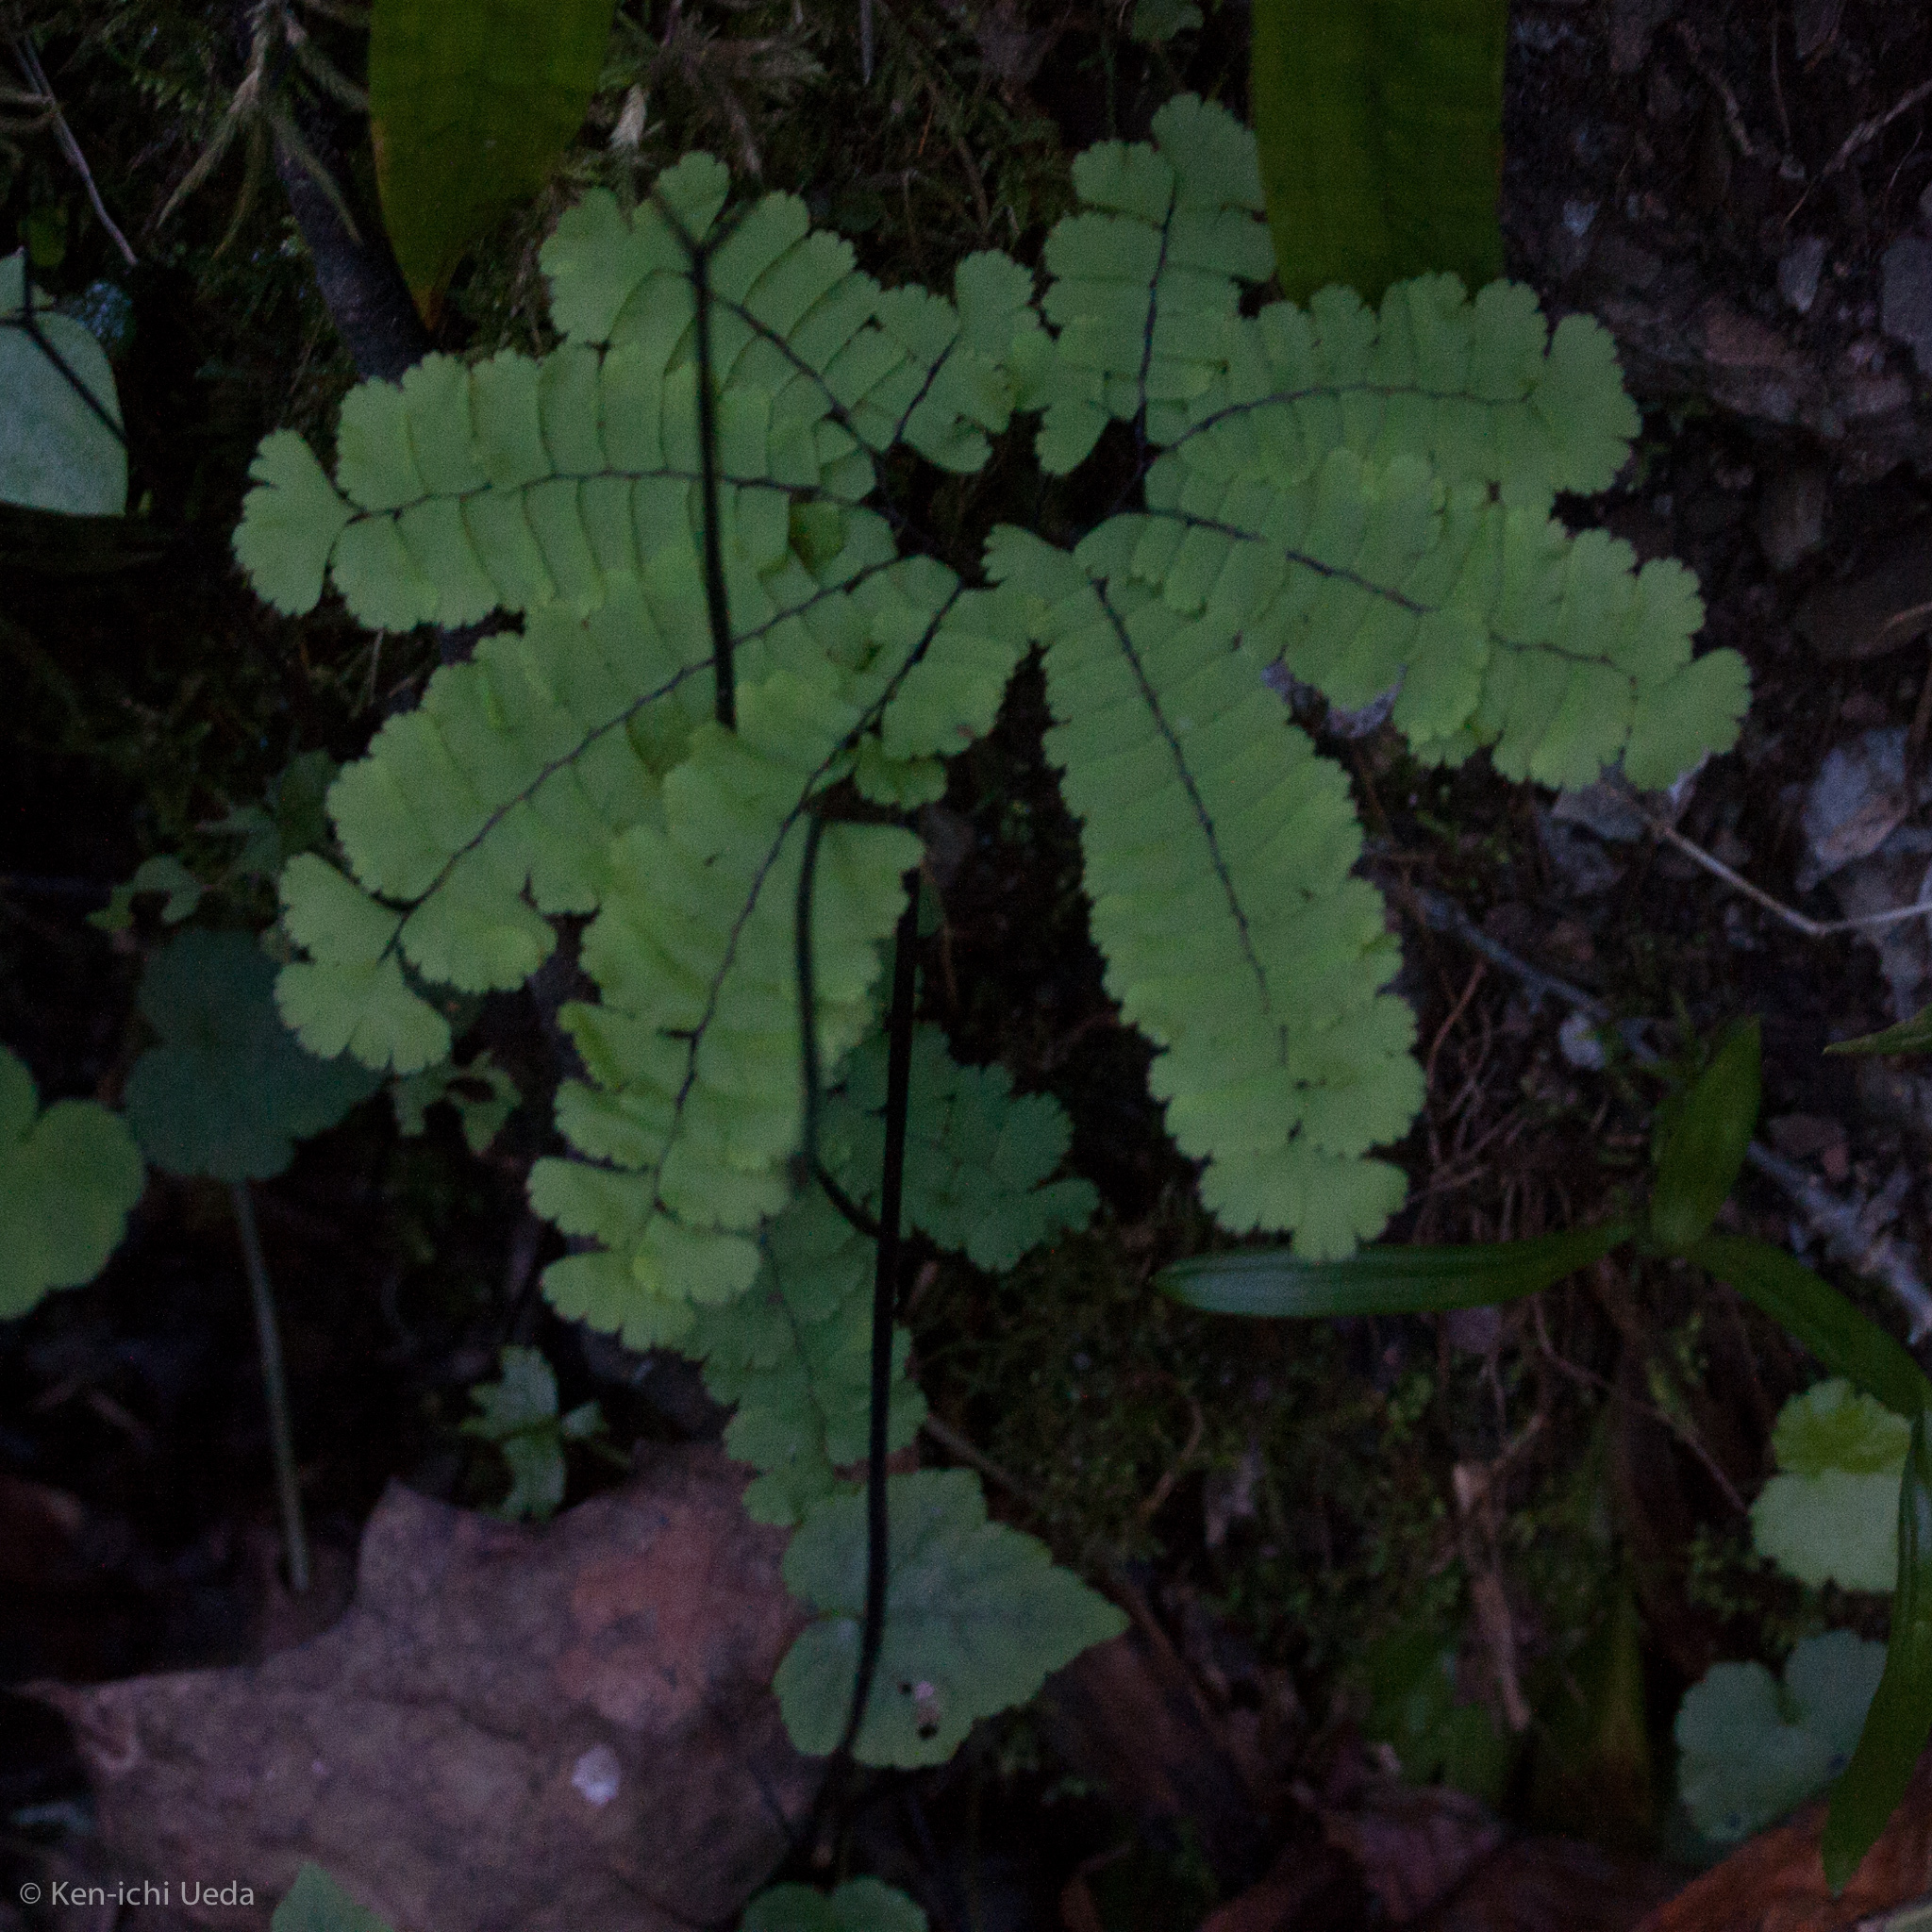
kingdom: Plantae
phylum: Tracheophyta
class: Polypodiopsida
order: Polypodiales
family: Pteridaceae
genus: Adiantum
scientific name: Adiantum pedatum
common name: Five-finger fern
